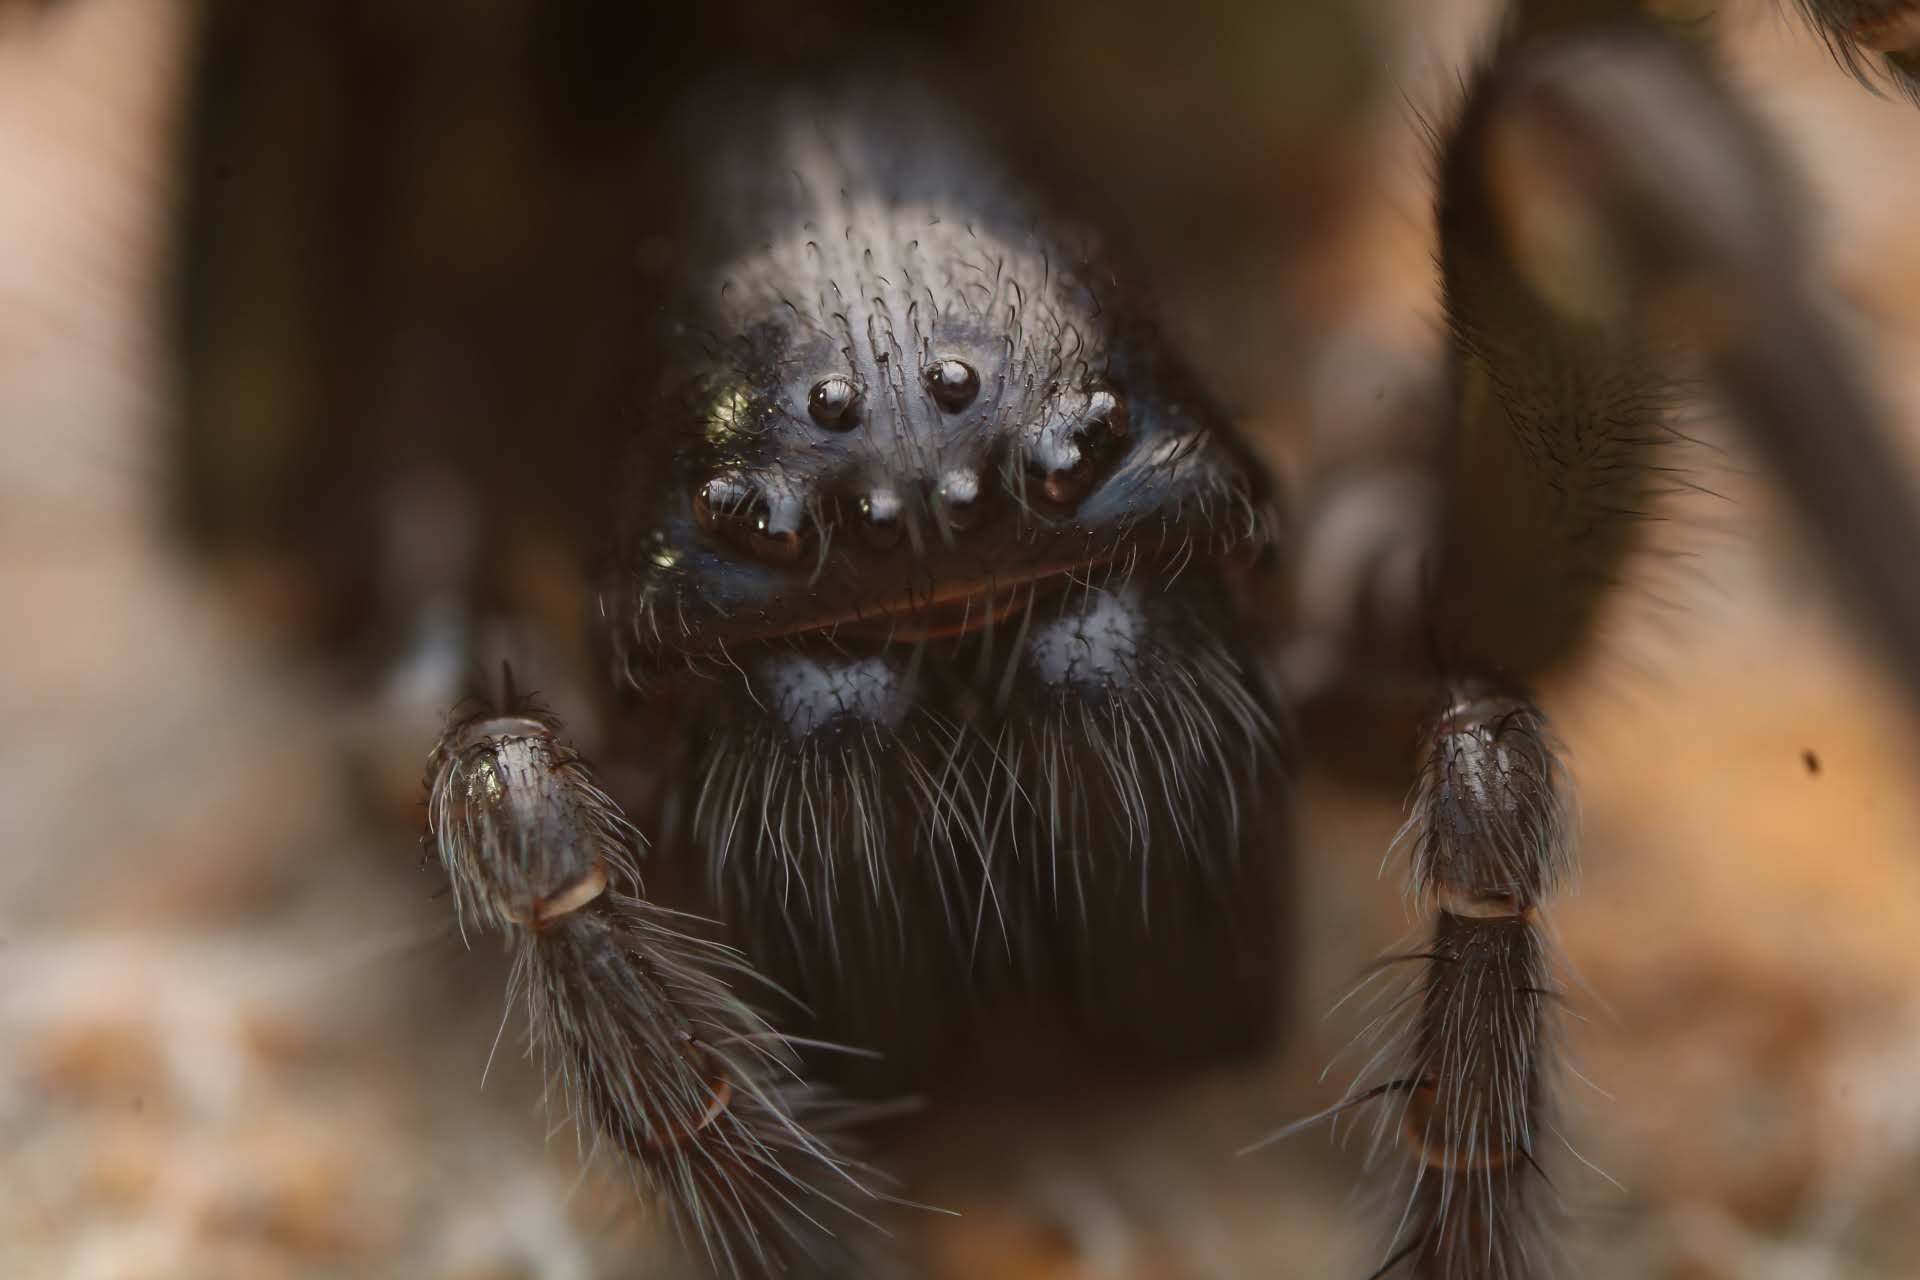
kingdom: Animalia
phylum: Arthropoda
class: Arachnida
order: Araneae
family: Amaurobiidae
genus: Amaurobius
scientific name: Amaurobius ferox
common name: Black laceweaver
